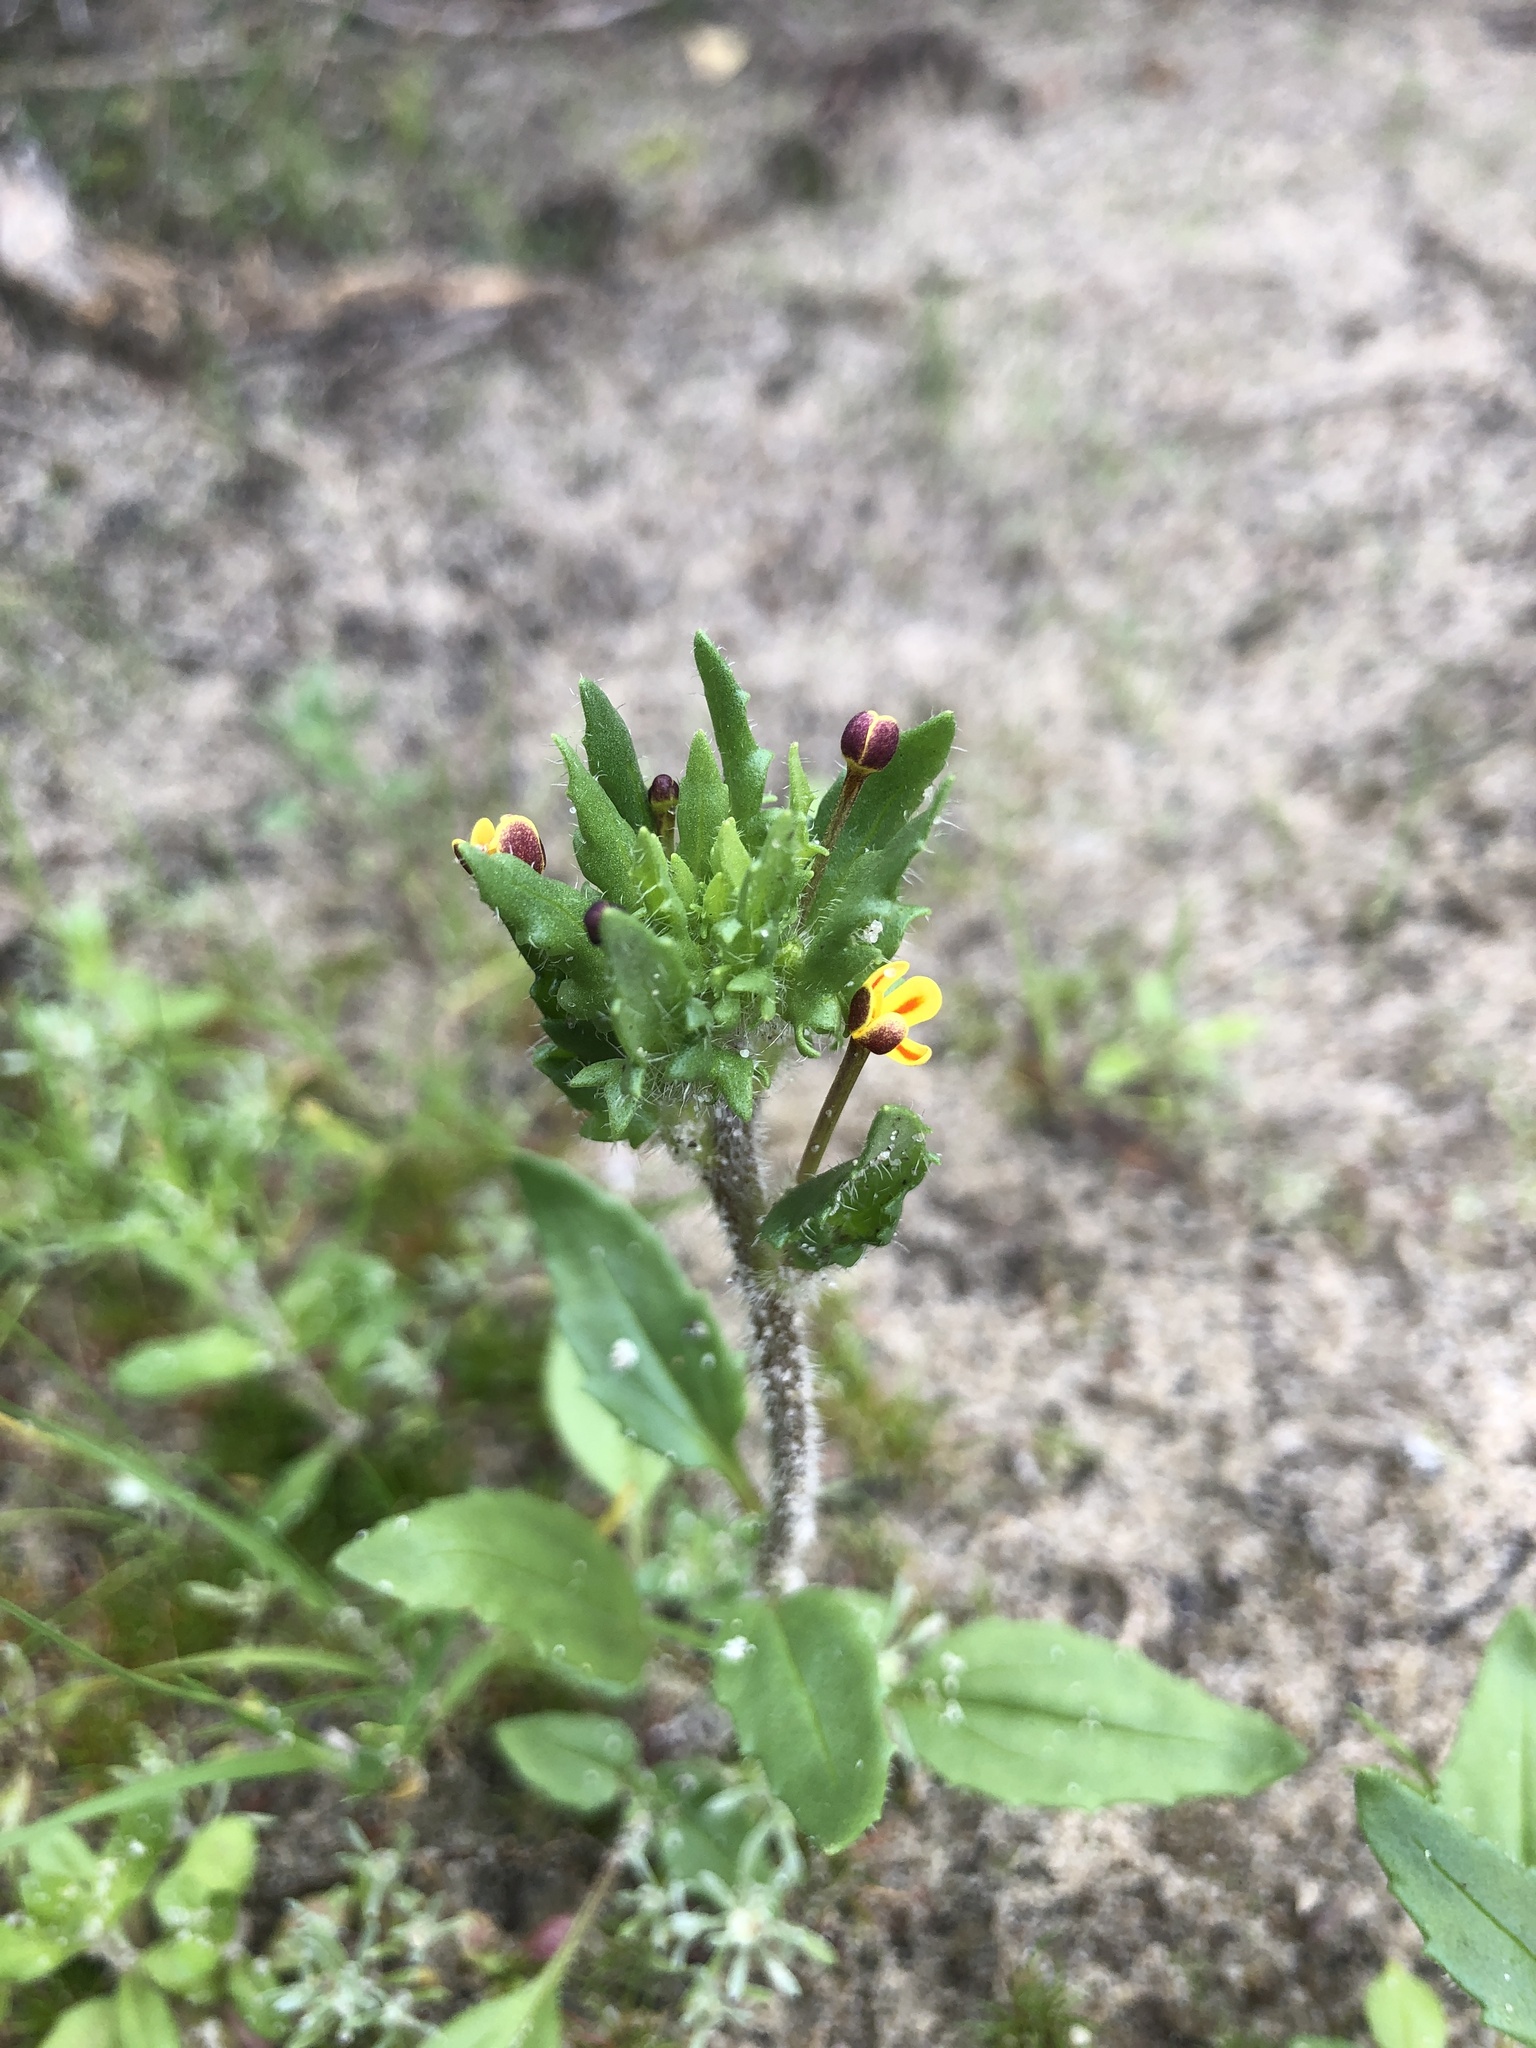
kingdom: Plantae
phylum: Tracheophyta
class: Magnoliopsida
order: Lamiales
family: Scrophulariaceae
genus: Zaluzianskya
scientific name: Zaluzianskya divaricata
